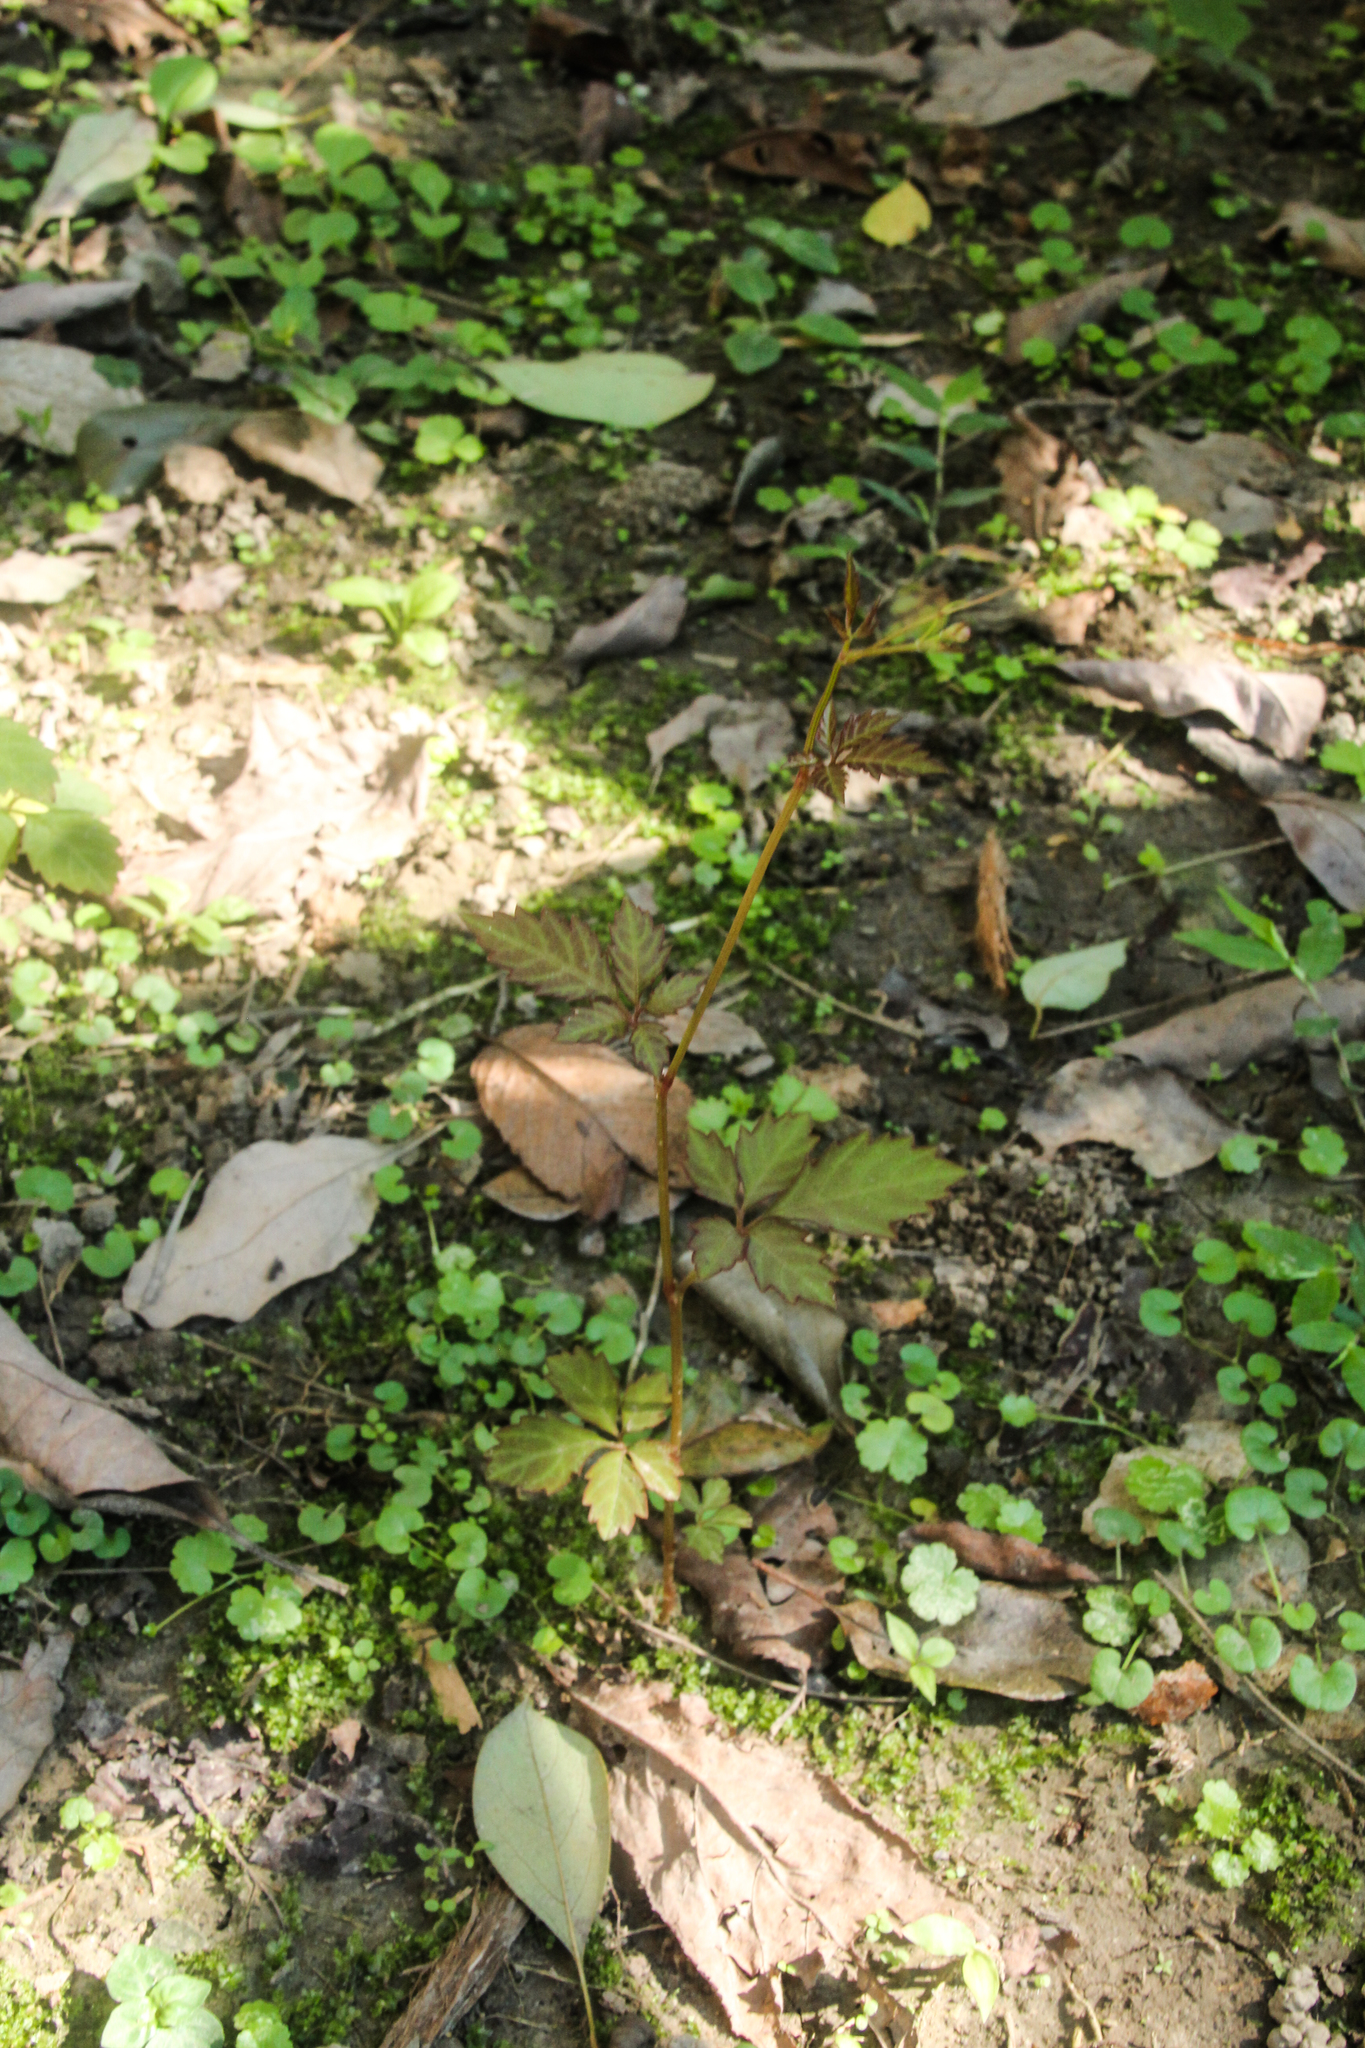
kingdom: Plantae
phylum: Tracheophyta
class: Magnoliopsida
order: Vitales
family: Vitaceae
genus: Causonis
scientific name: Causonis japonica
